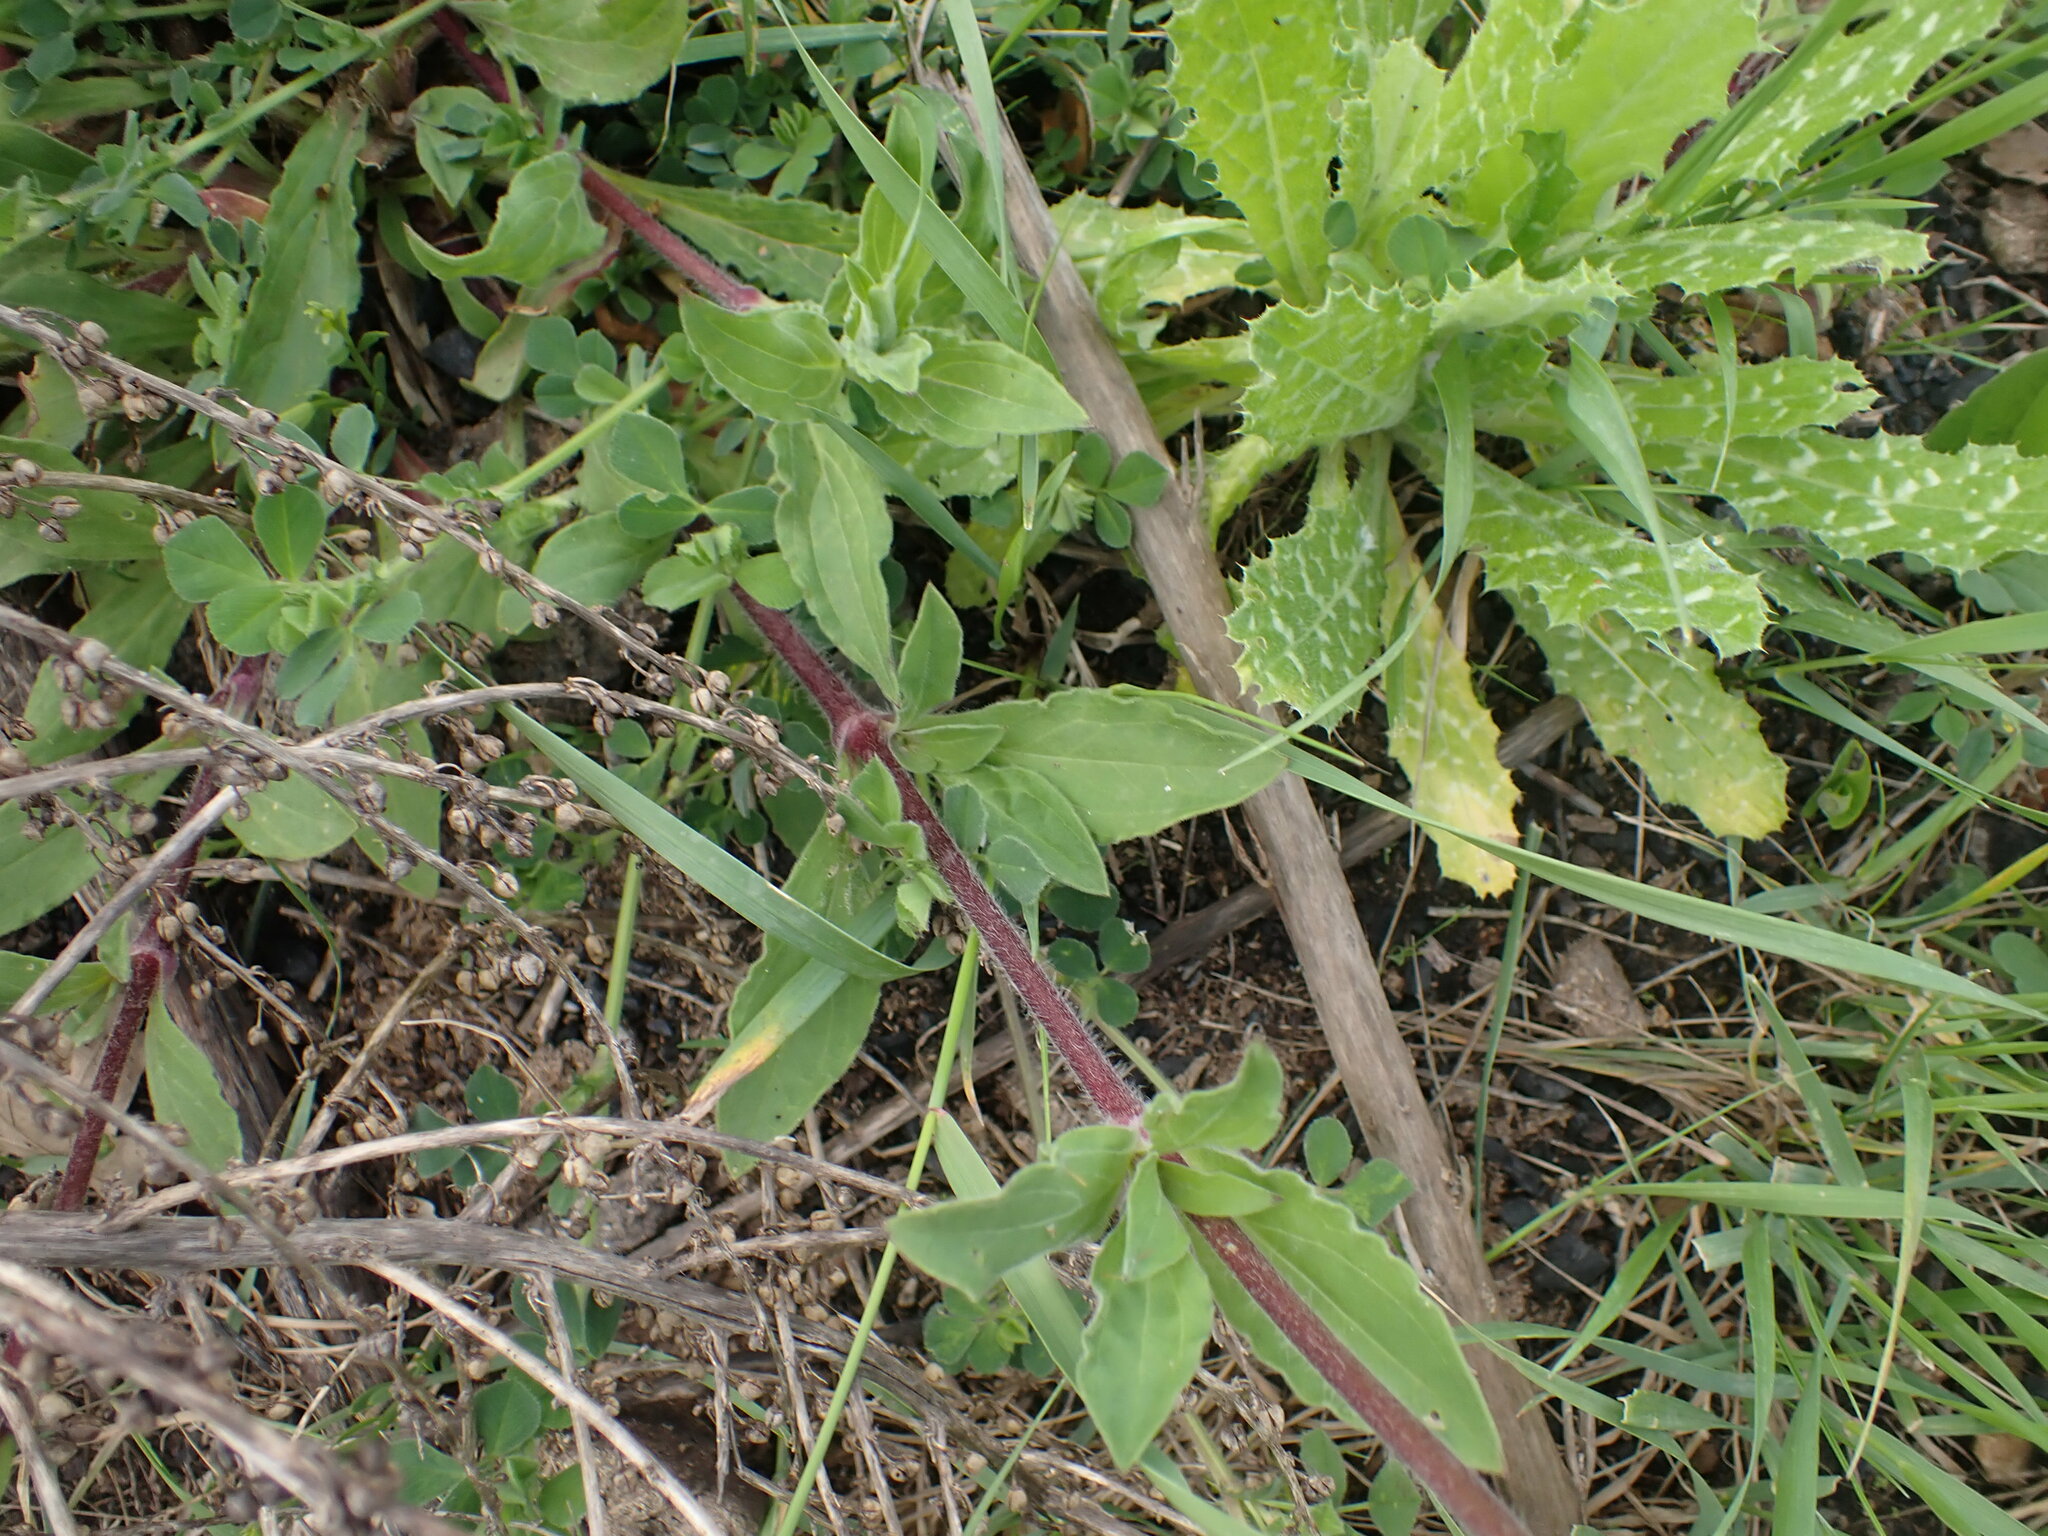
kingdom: Plantae
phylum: Tracheophyta
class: Magnoliopsida
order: Caryophyllales
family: Caryophyllaceae
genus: Silene
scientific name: Silene latifolia
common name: White campion
